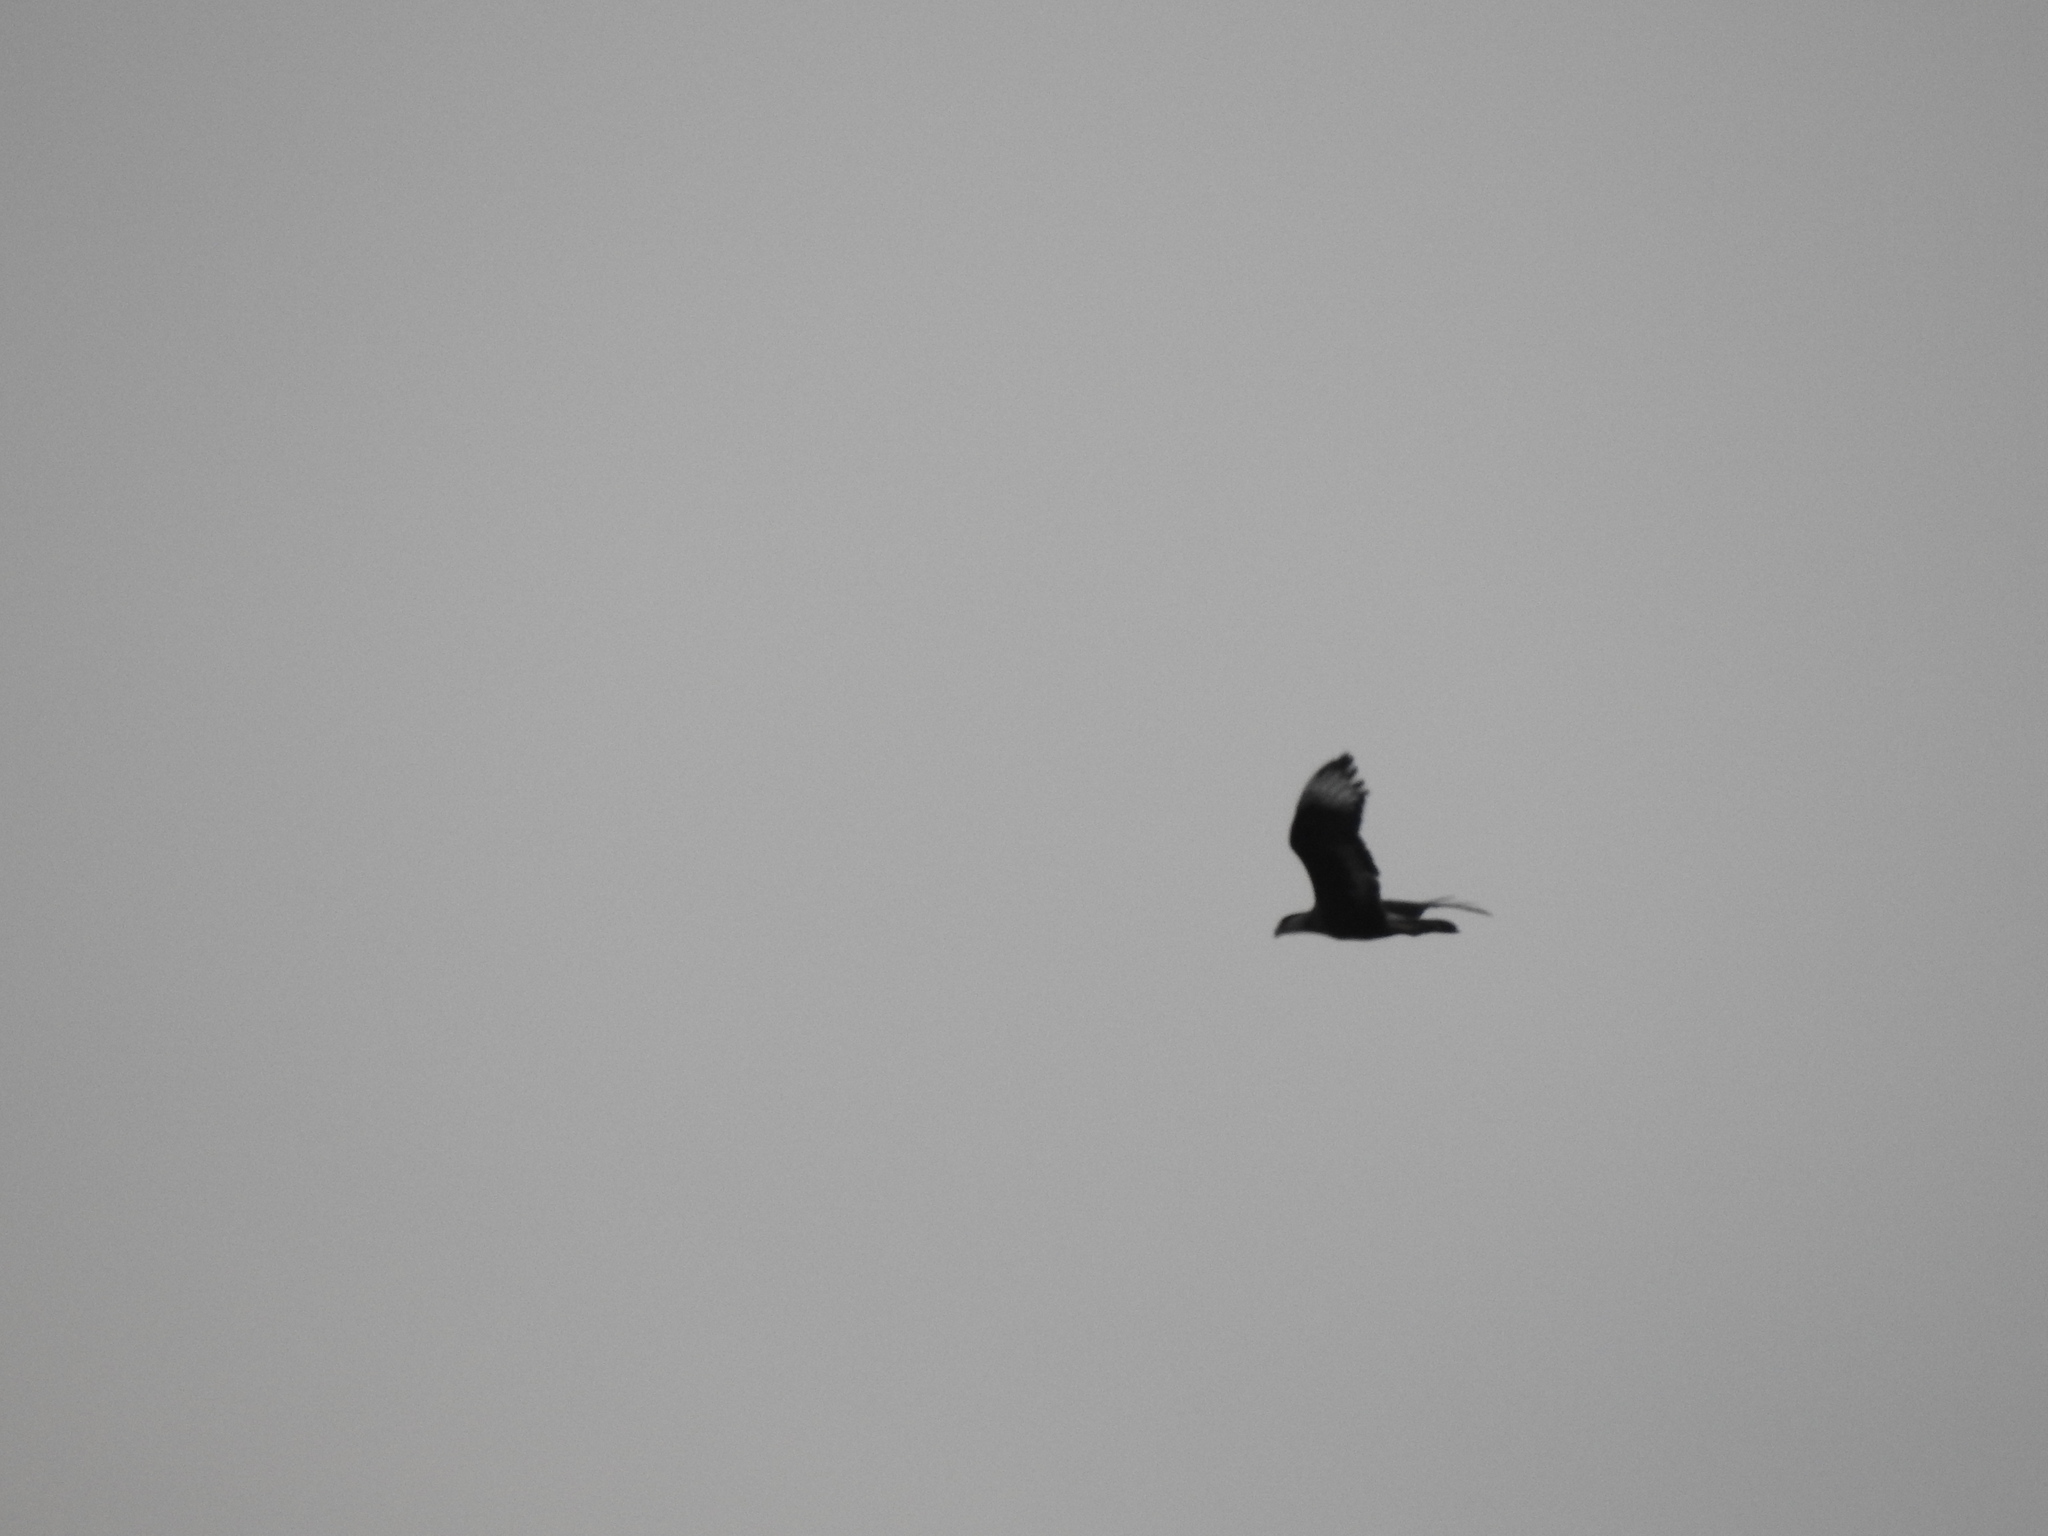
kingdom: Animalia
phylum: Chordata
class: Aves
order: Falconiformes
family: Falconidae
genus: Caracara
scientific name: Caracara plancus
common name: Southern caracara
